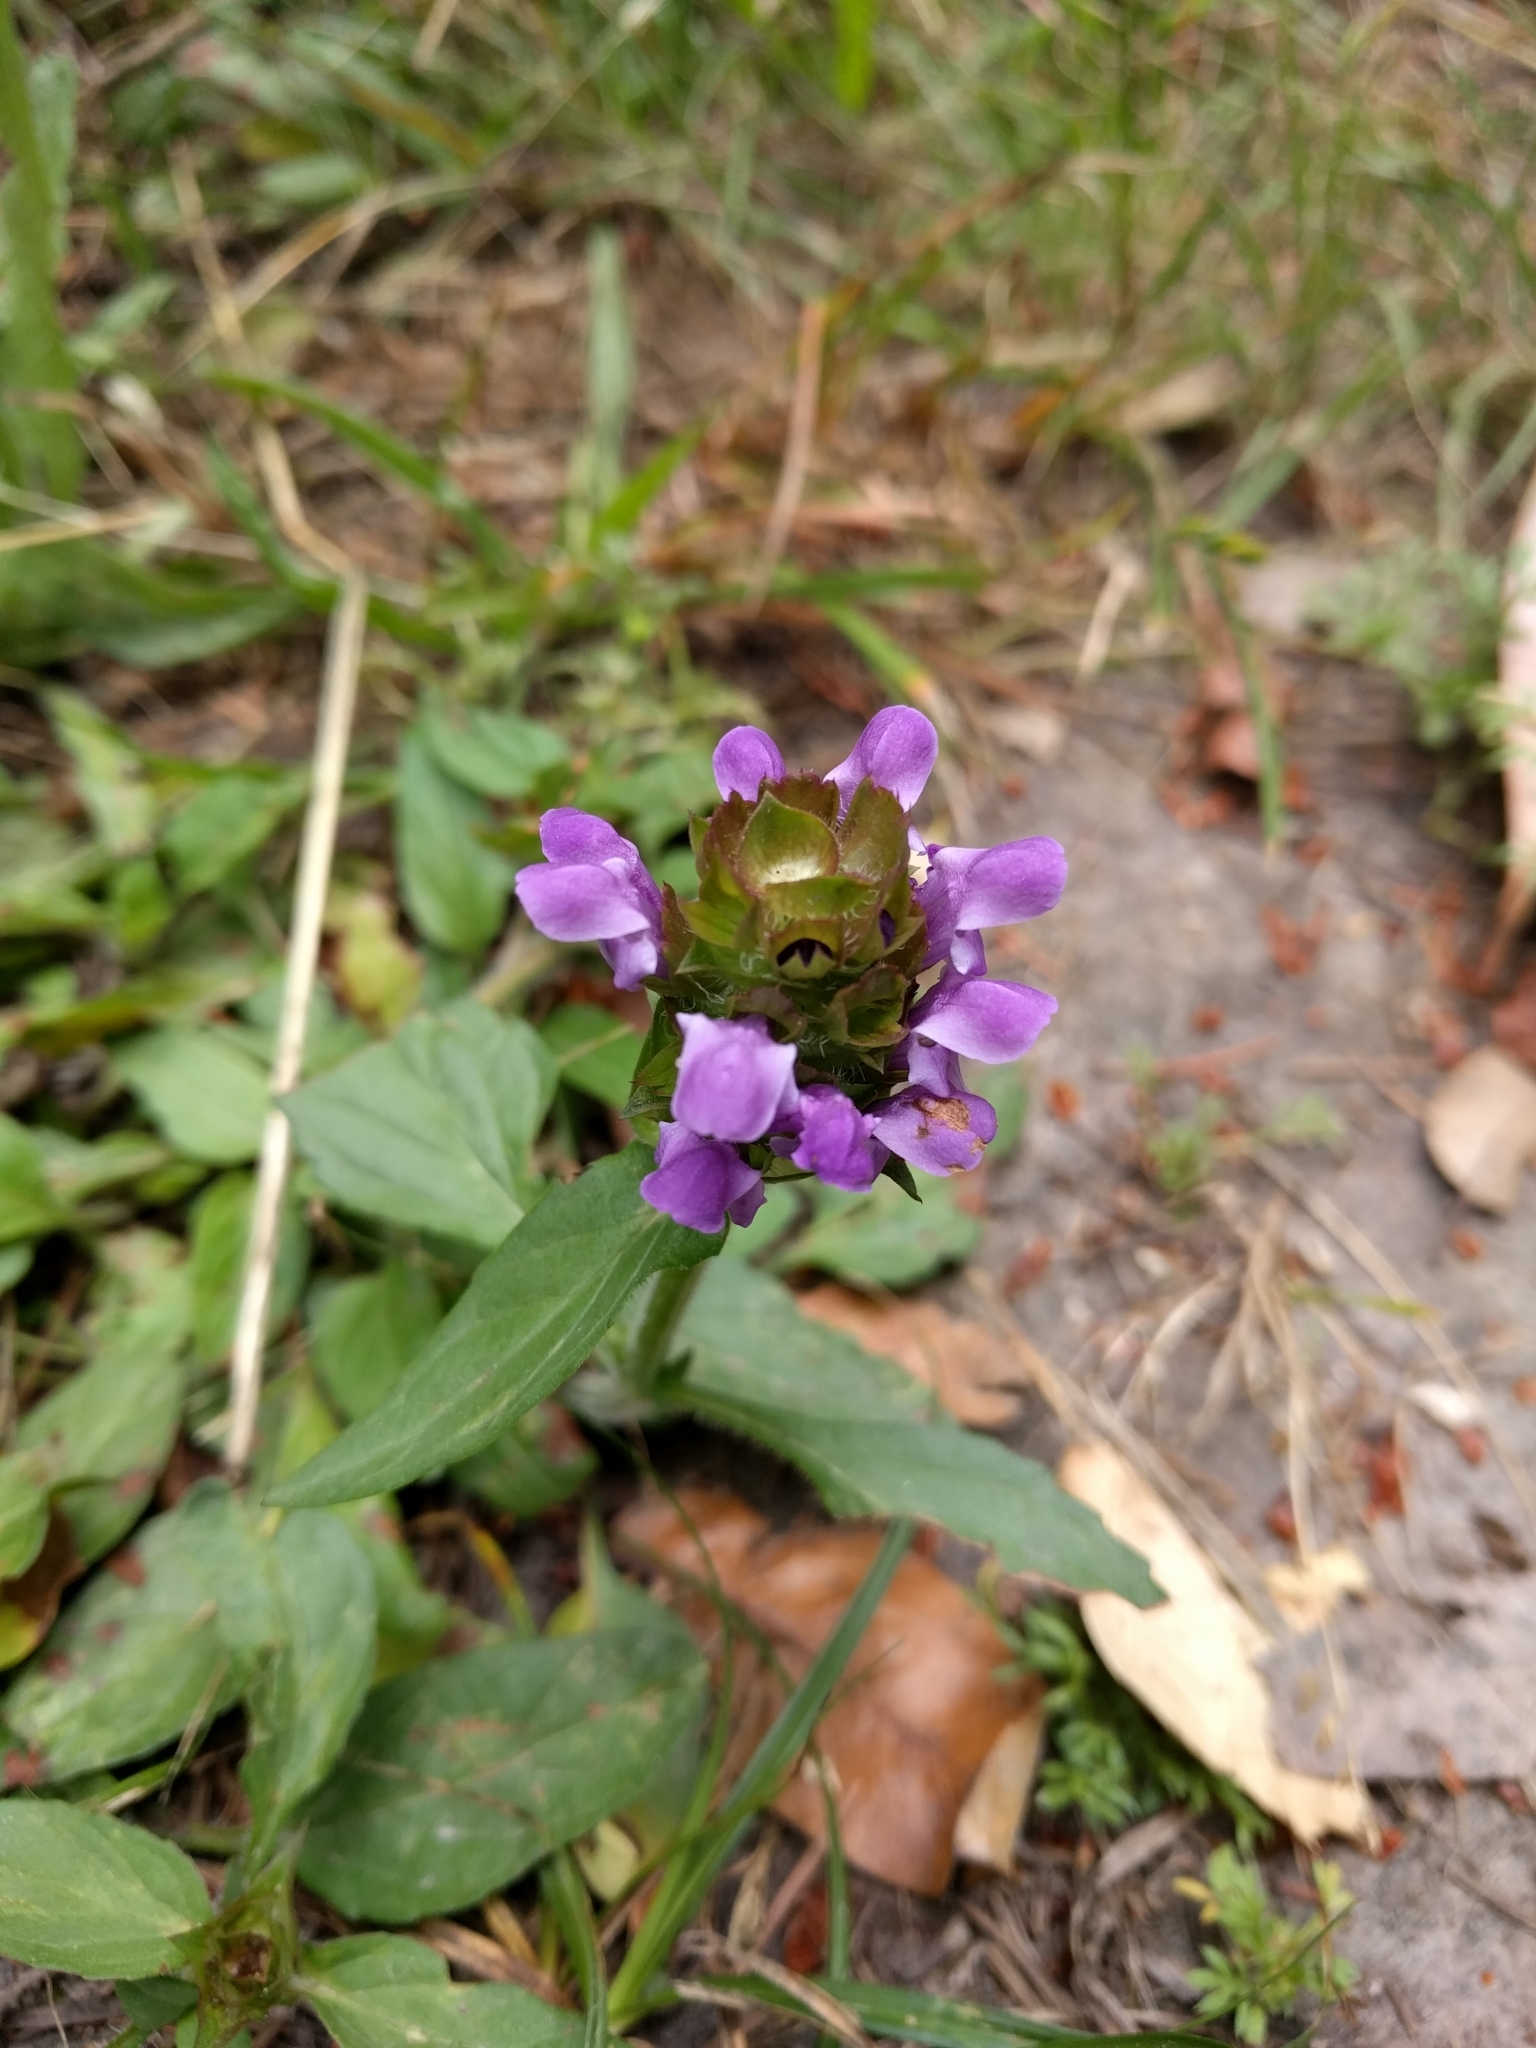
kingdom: Plantae
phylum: Tracheophyta
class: Magnoliopsida
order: Lamiales
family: Lamiaceae
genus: Prunella
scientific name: Prunella vulgaris
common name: Heal-all
